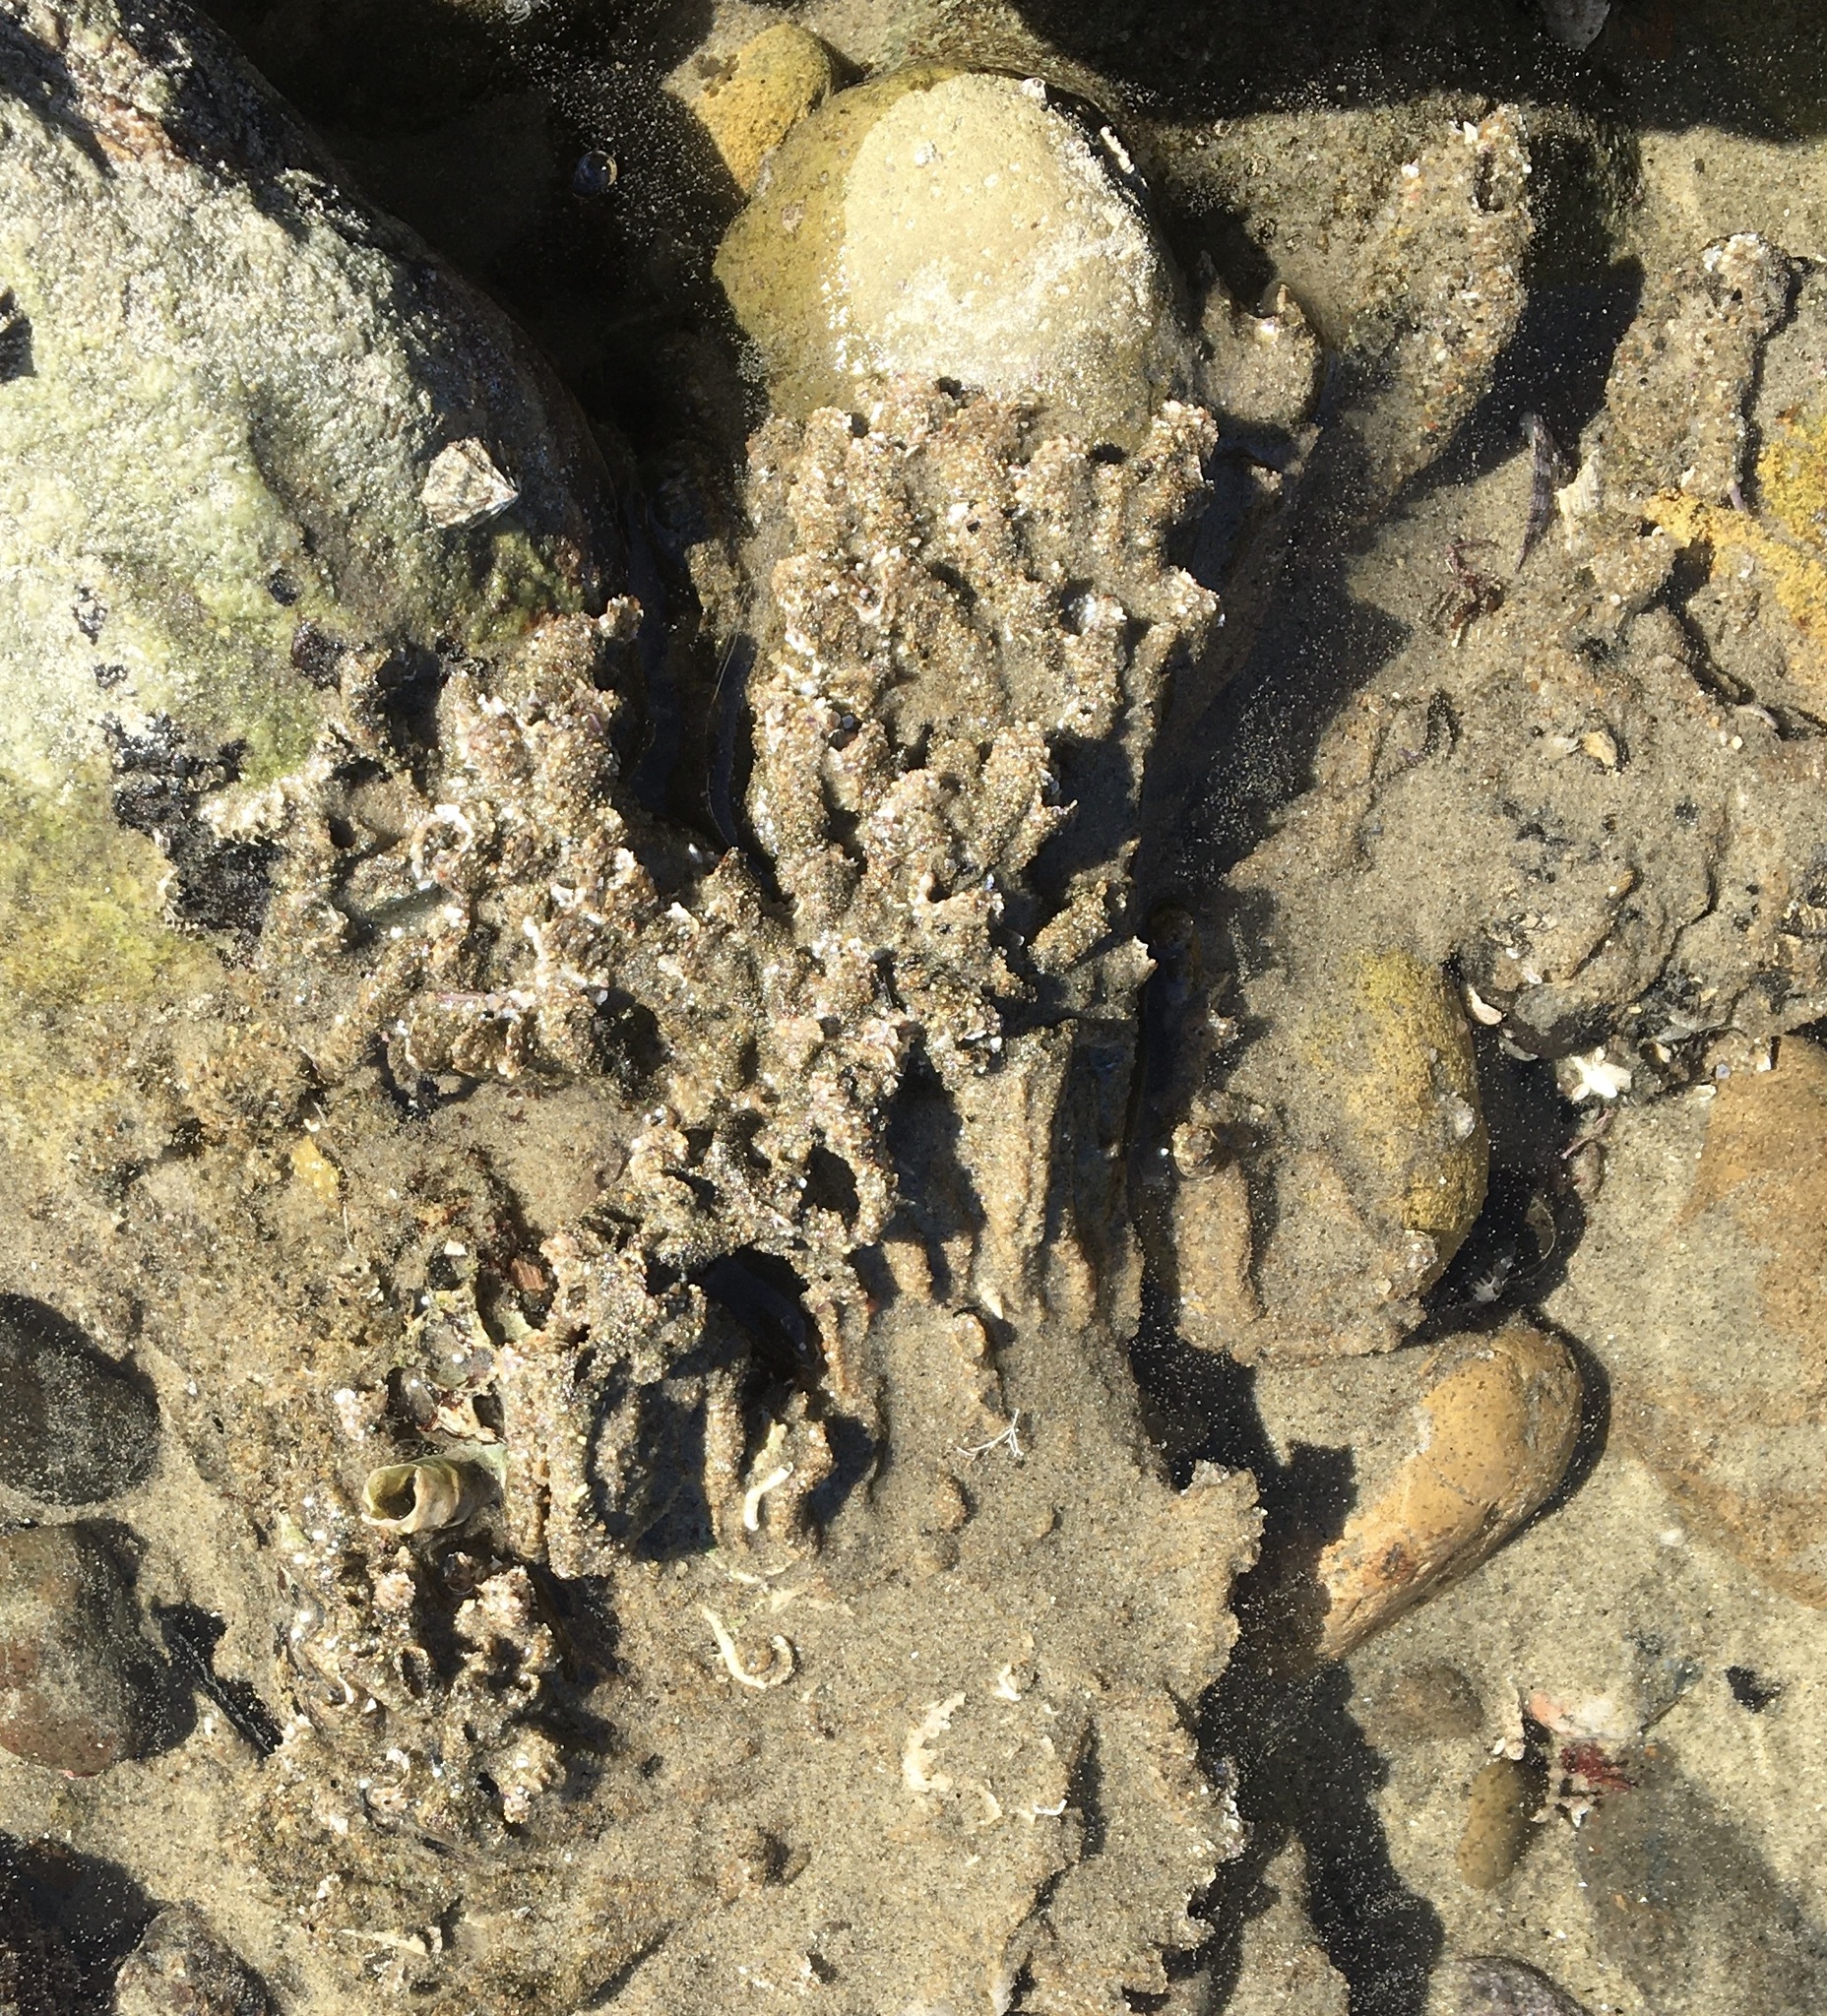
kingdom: Animalia
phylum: Annelida
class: Polychaeta
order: Sabellida
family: Sabellariidae
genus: Phragmatopoma
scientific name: Phragmatopoma californica
